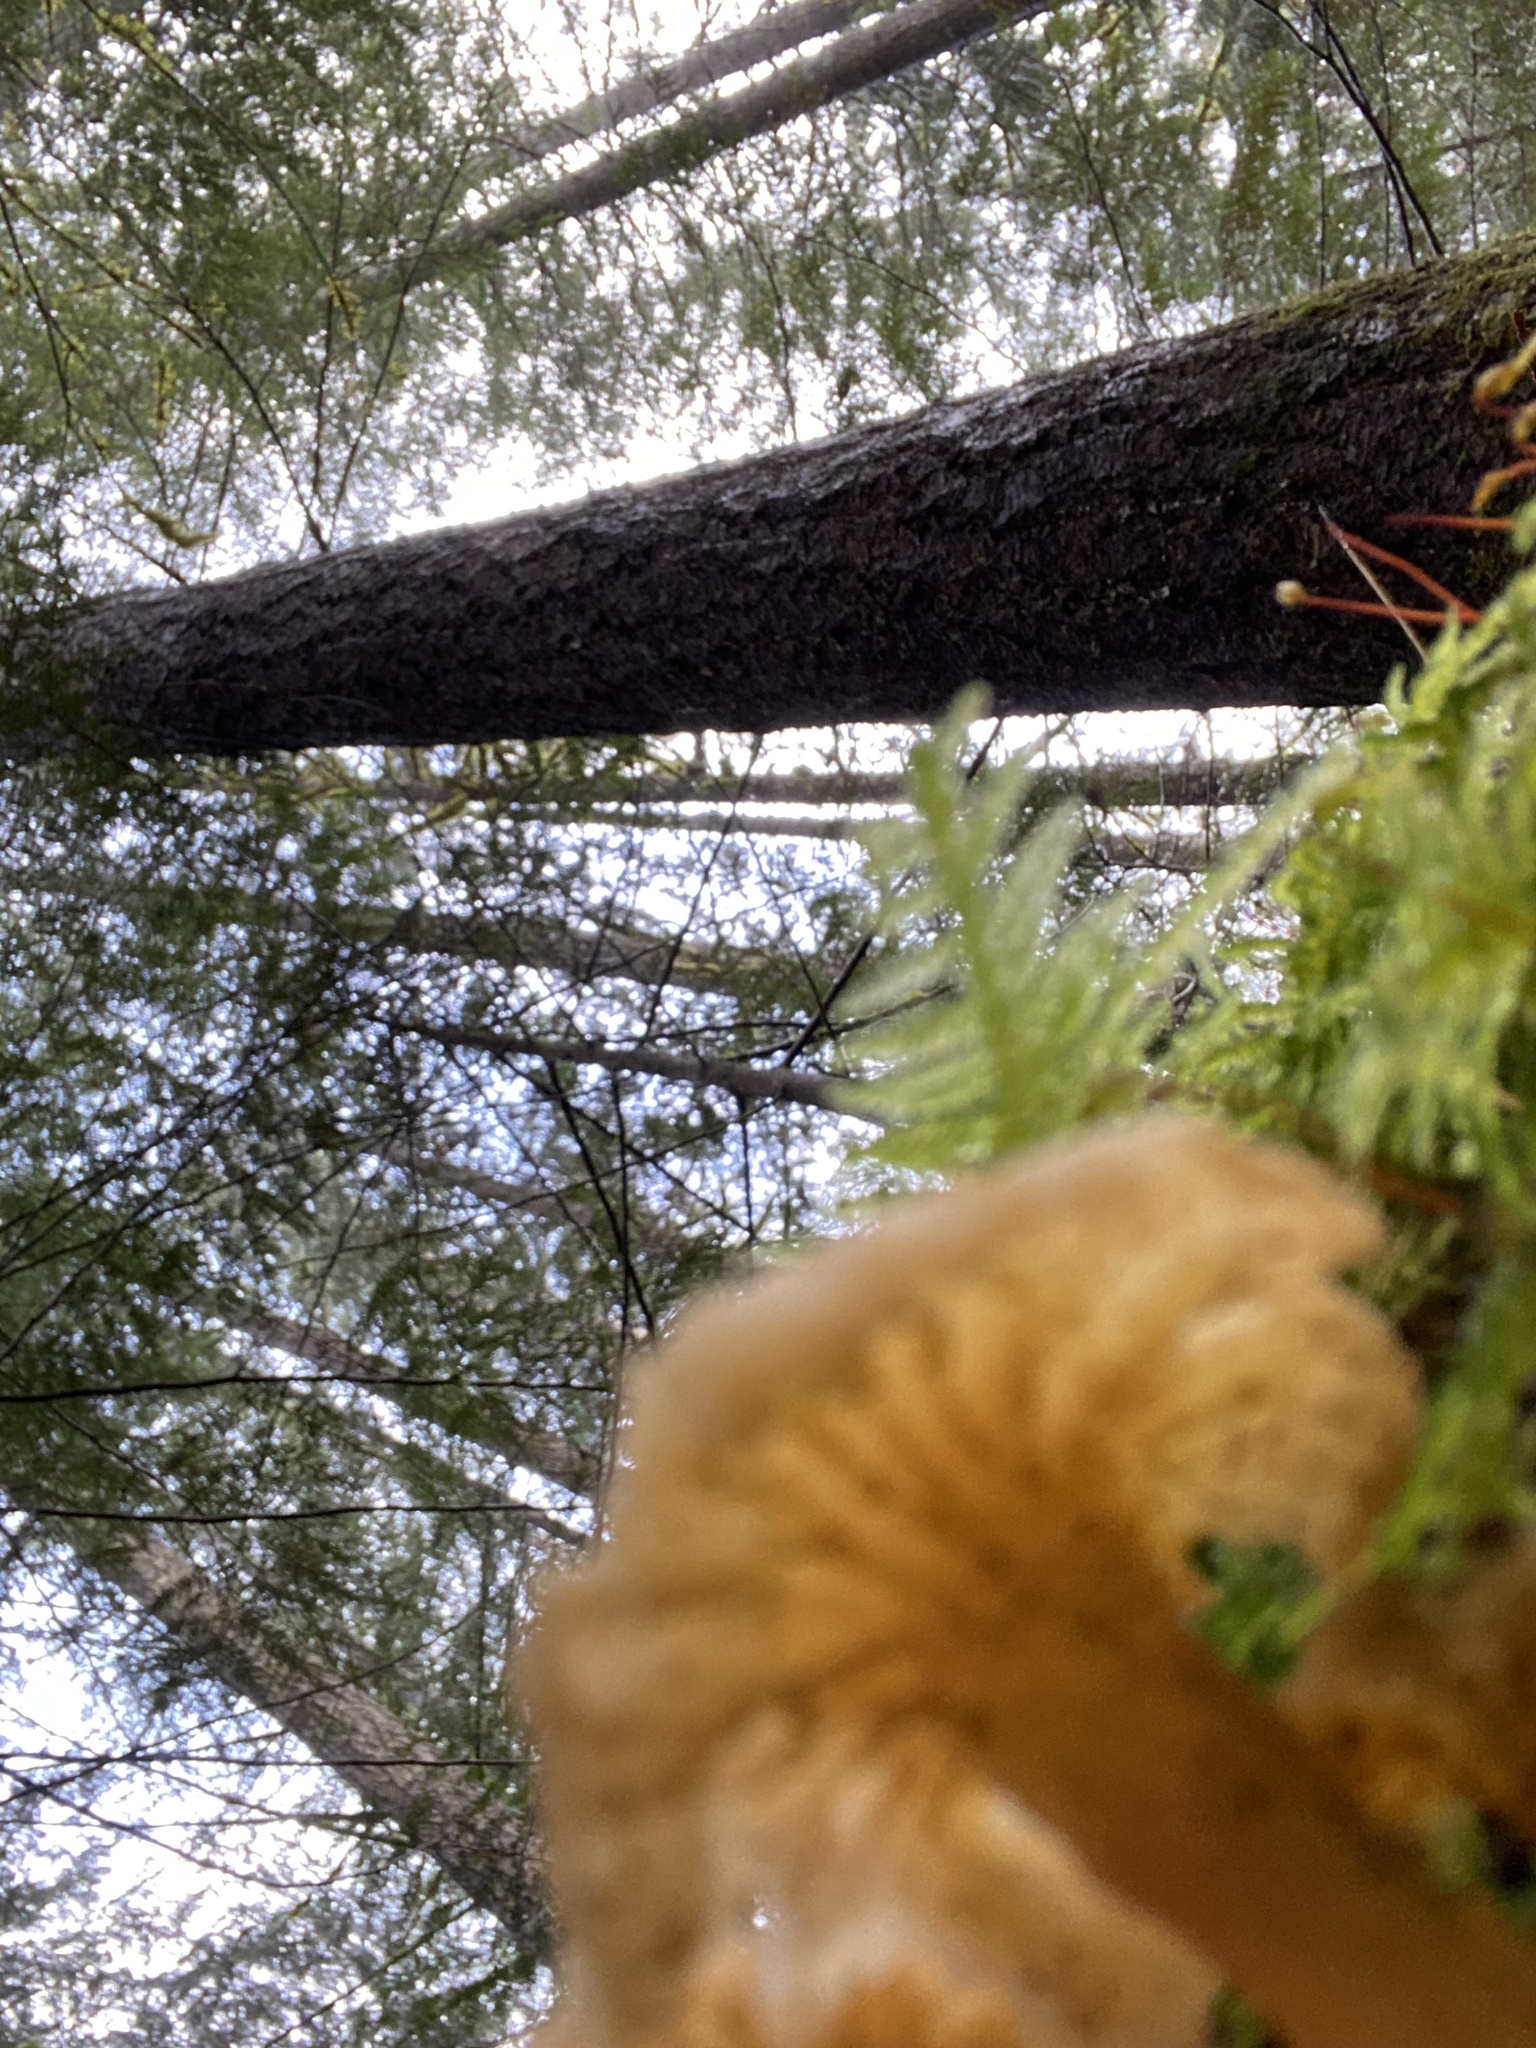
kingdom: Fungi
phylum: Basidiomycota
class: Agaricomycetes
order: Cantharellales
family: Hydnaceae
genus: Craterellus
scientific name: Craterellus tubaeformis
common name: Yellowfoot
